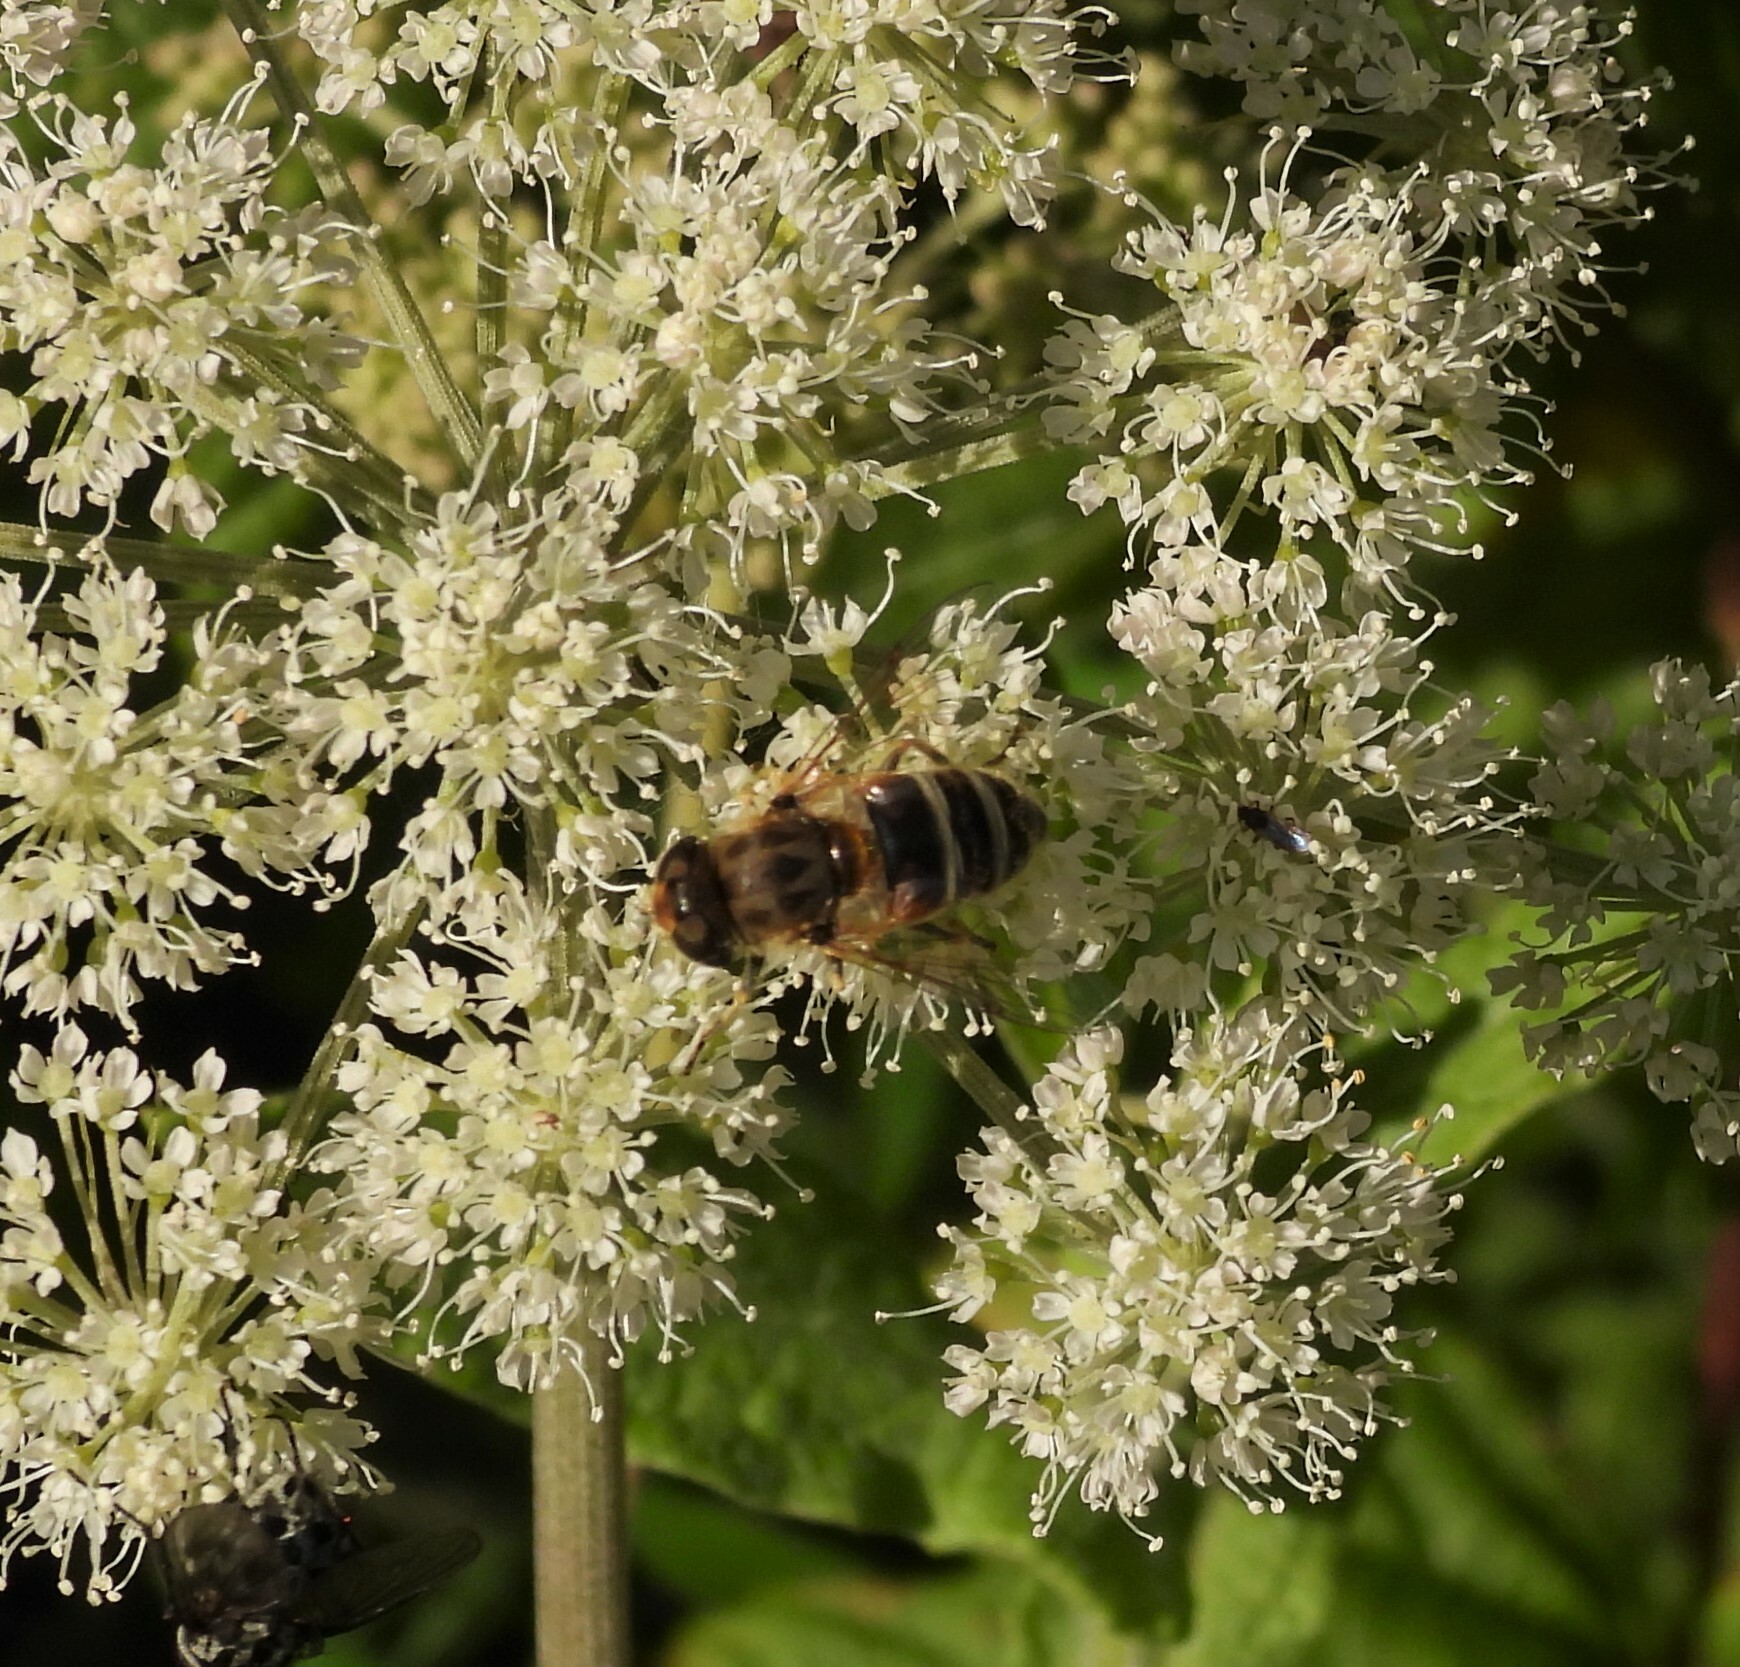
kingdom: Animalia
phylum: Arthropoda
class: Insecta
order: Diptera
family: Syrphidae
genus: Eoseristalis
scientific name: Eoseristalis
